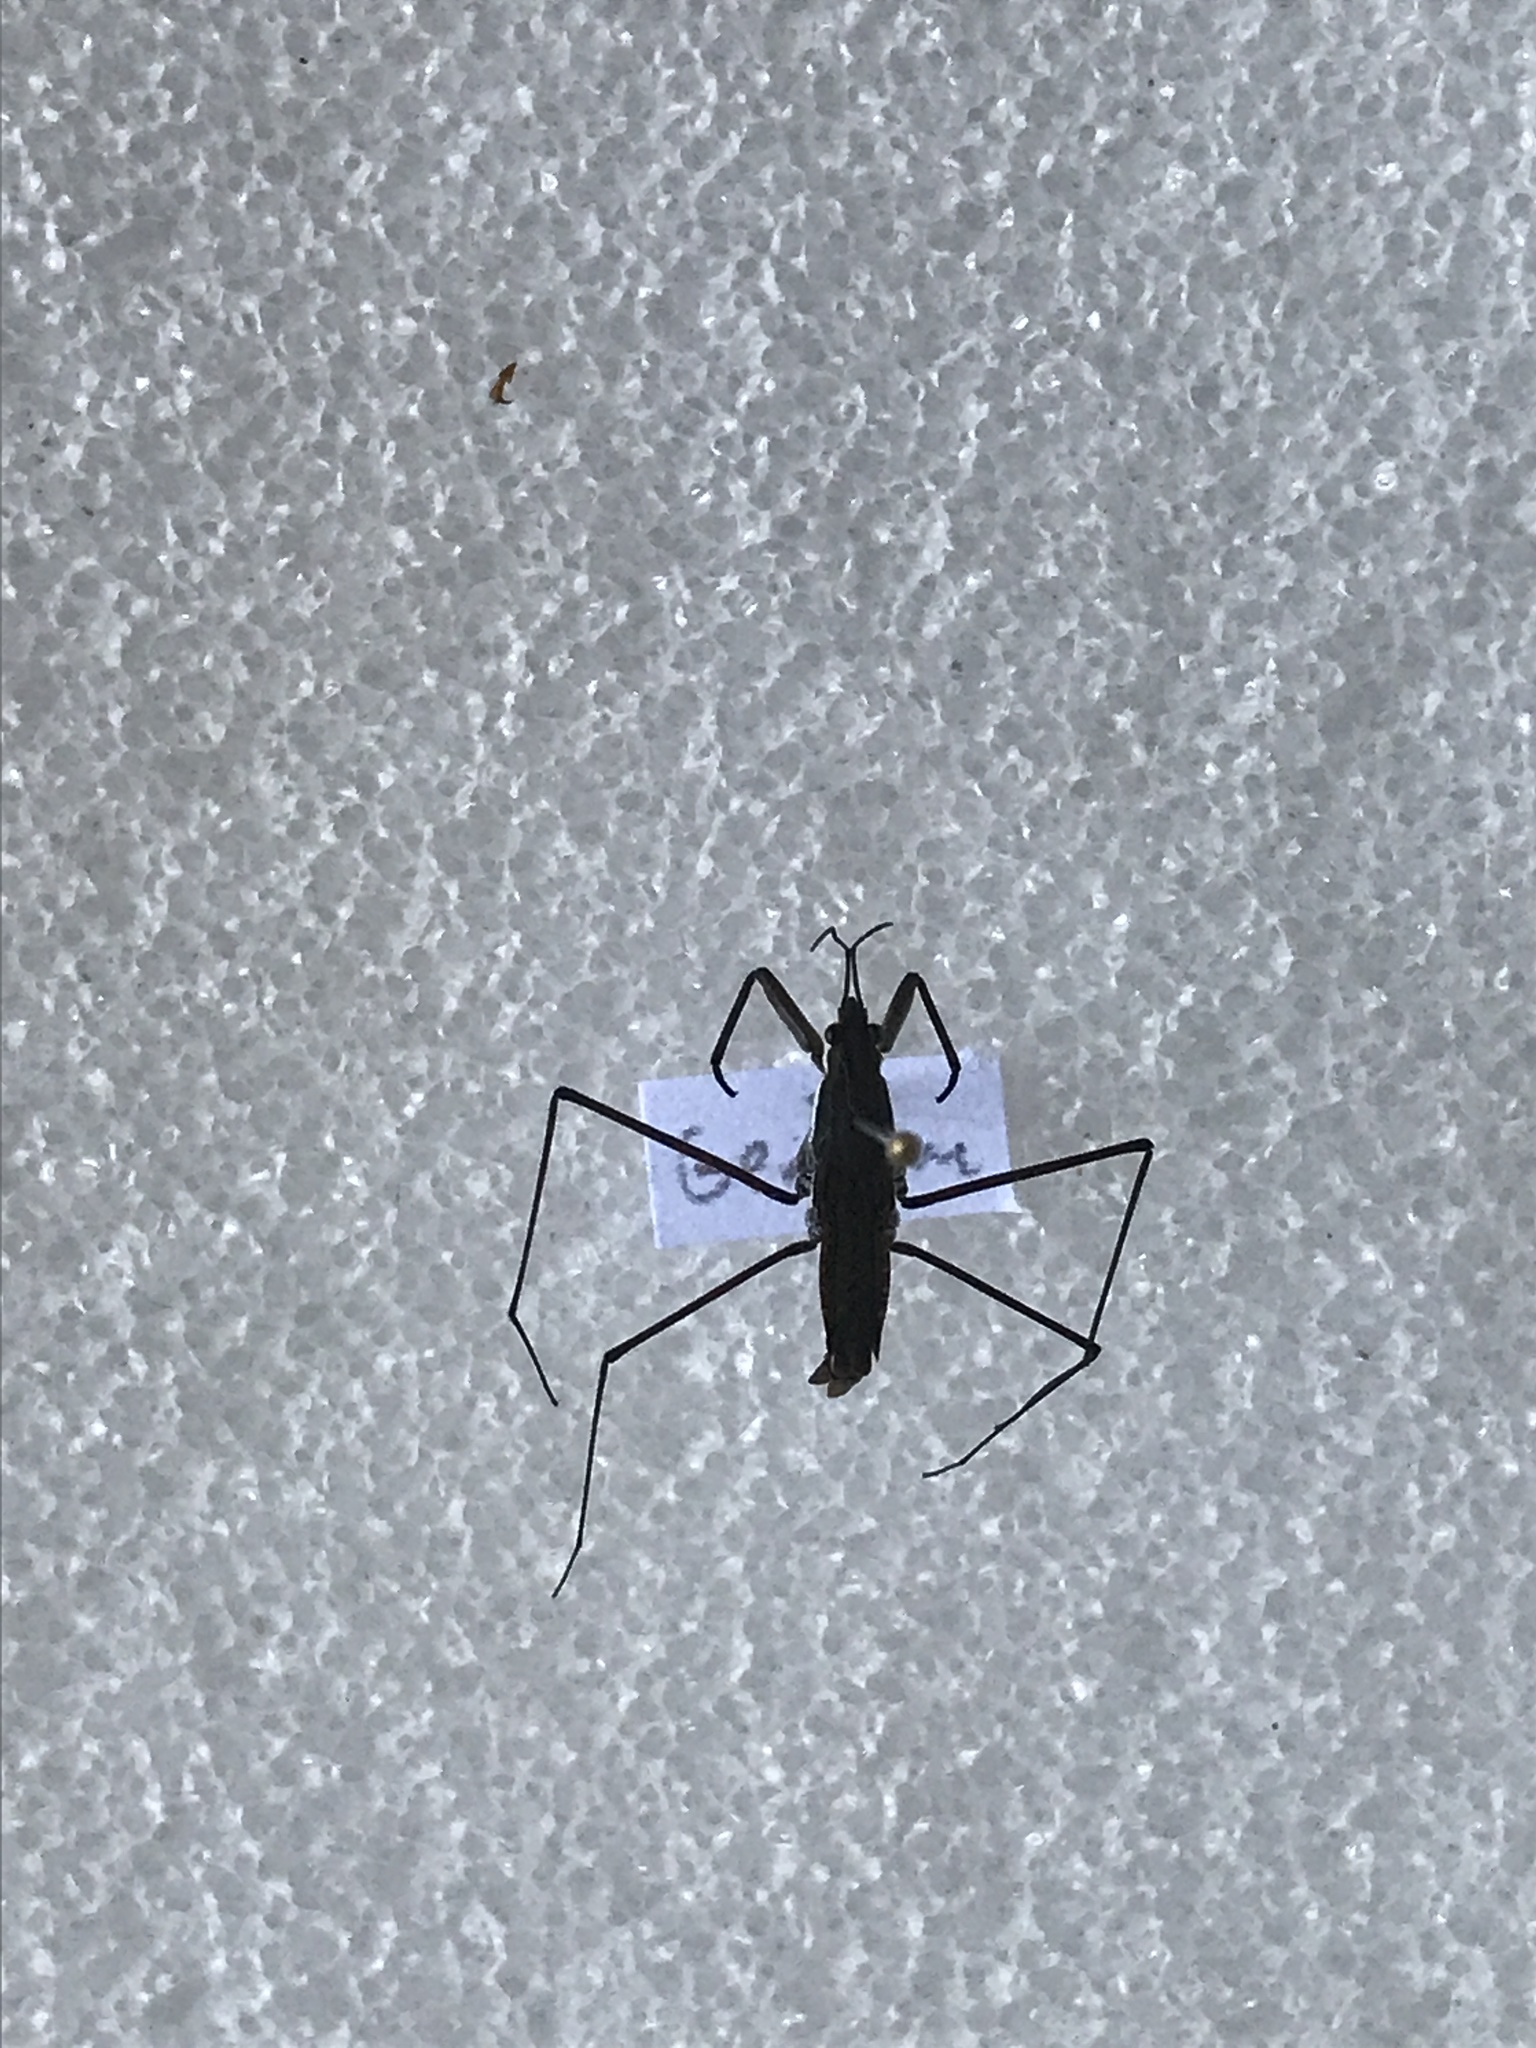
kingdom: Animalia
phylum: Arthropoda
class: Insecta
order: Hemiptera
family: Gerridae
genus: Aquarius
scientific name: Aquarius remigis
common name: Common water strider
